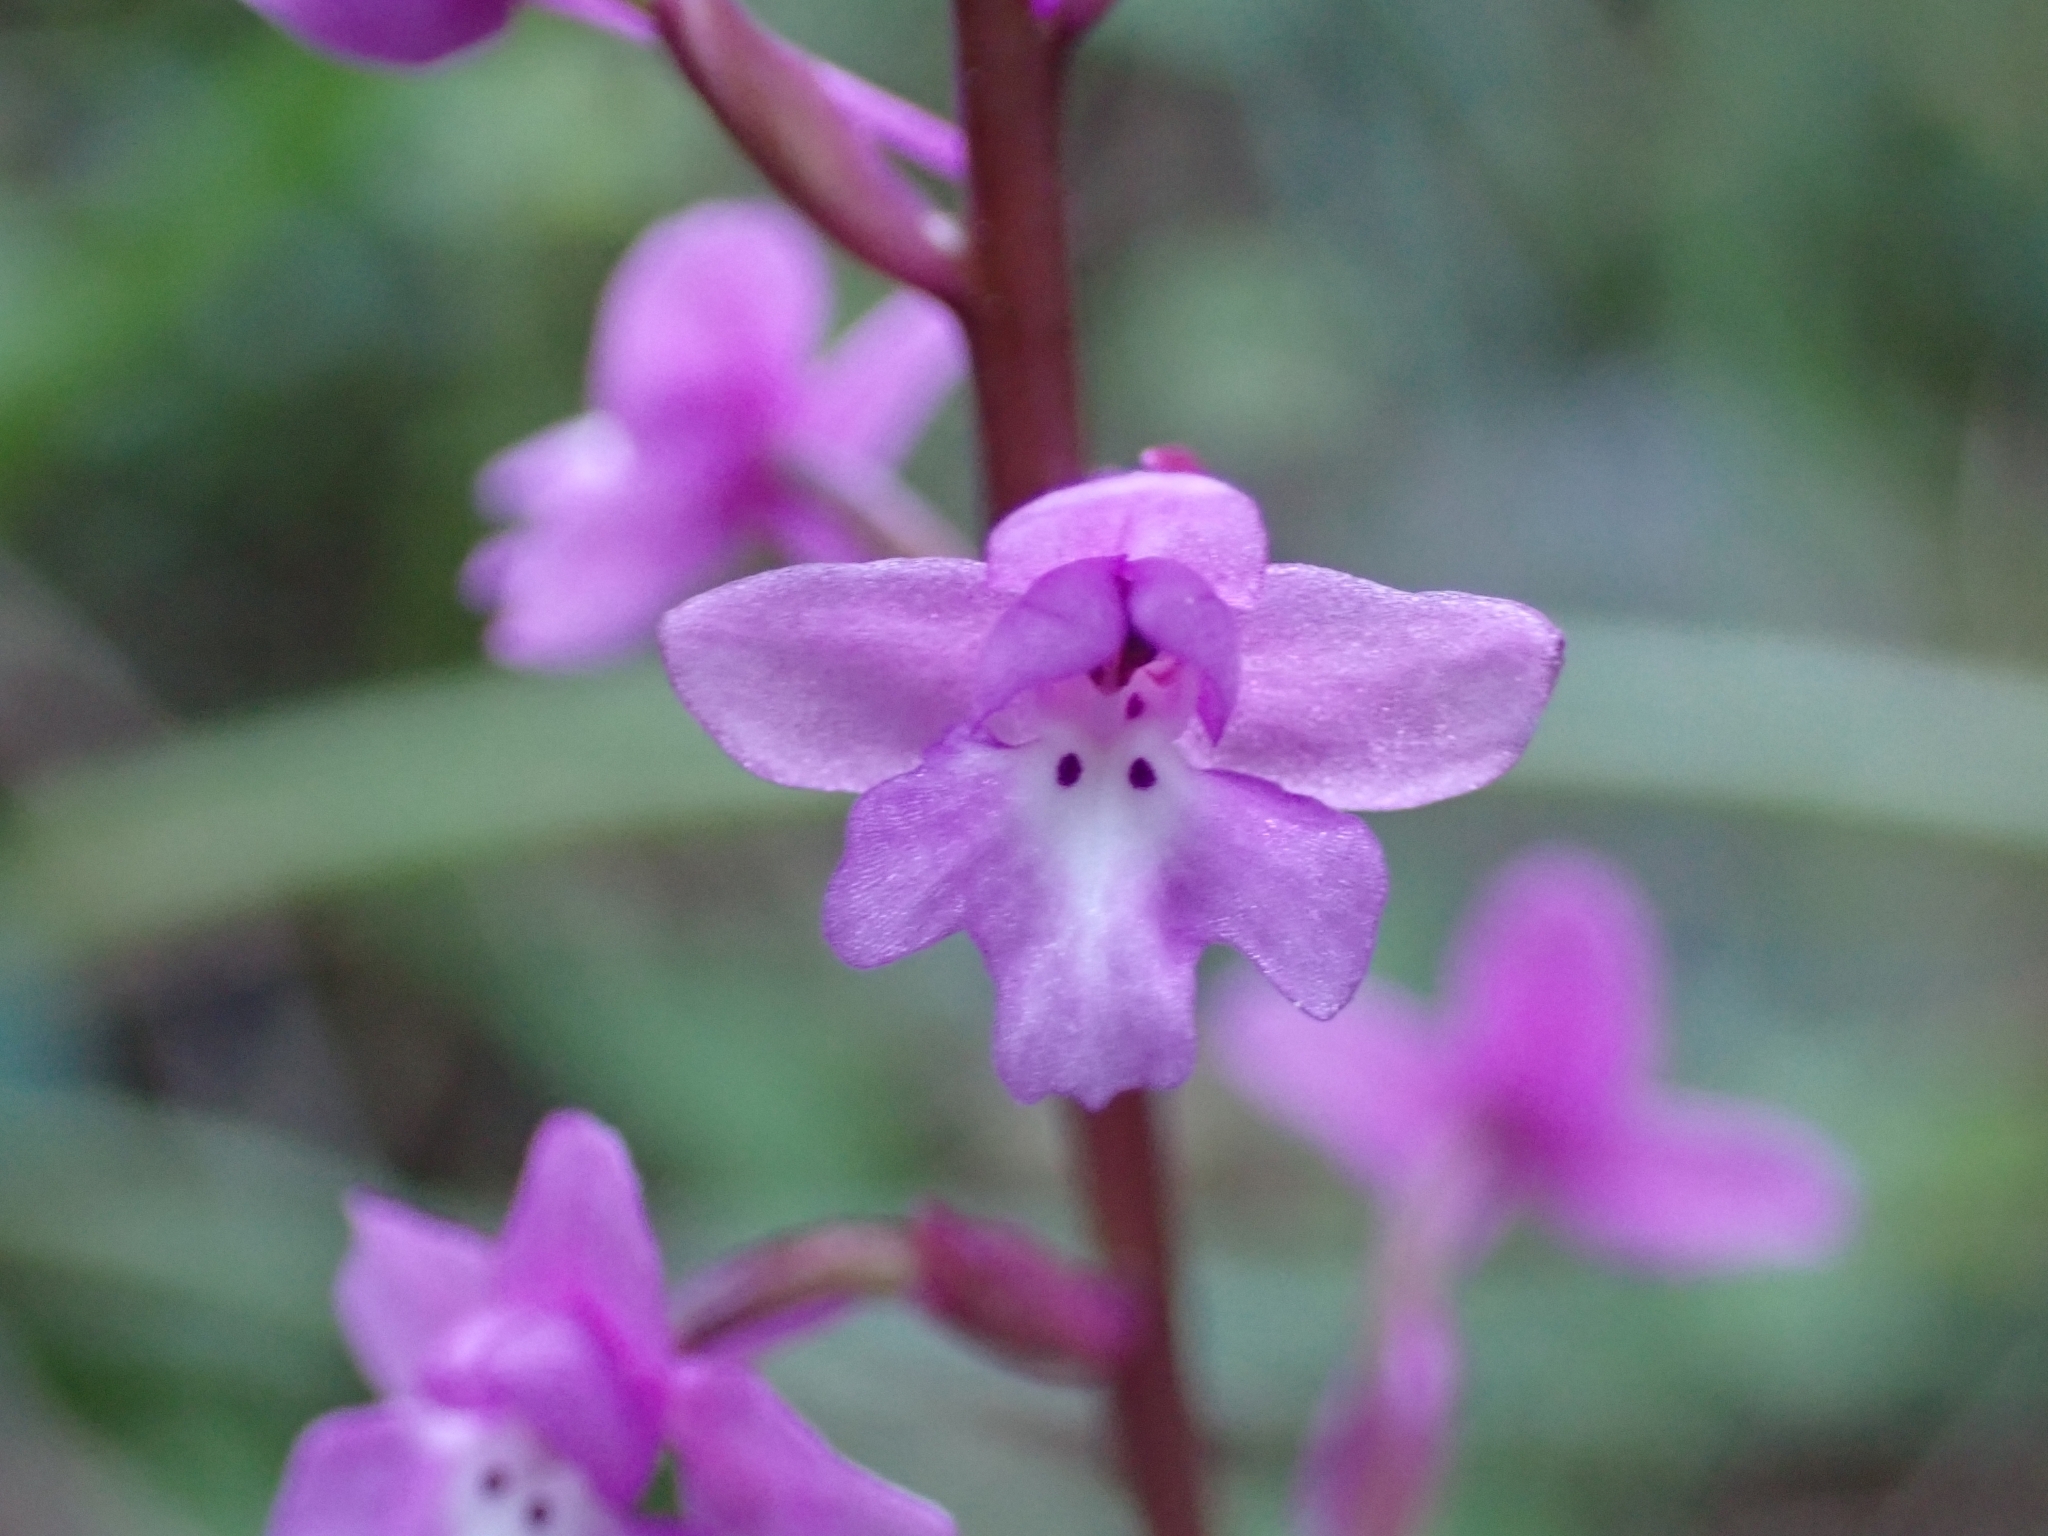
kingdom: Plantae
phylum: Tracheophyta
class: Liliopsida
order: Asparagales
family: Orchidaceae
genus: Orchis
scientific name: Orchis quadripunctata
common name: Four-spotted orchid
